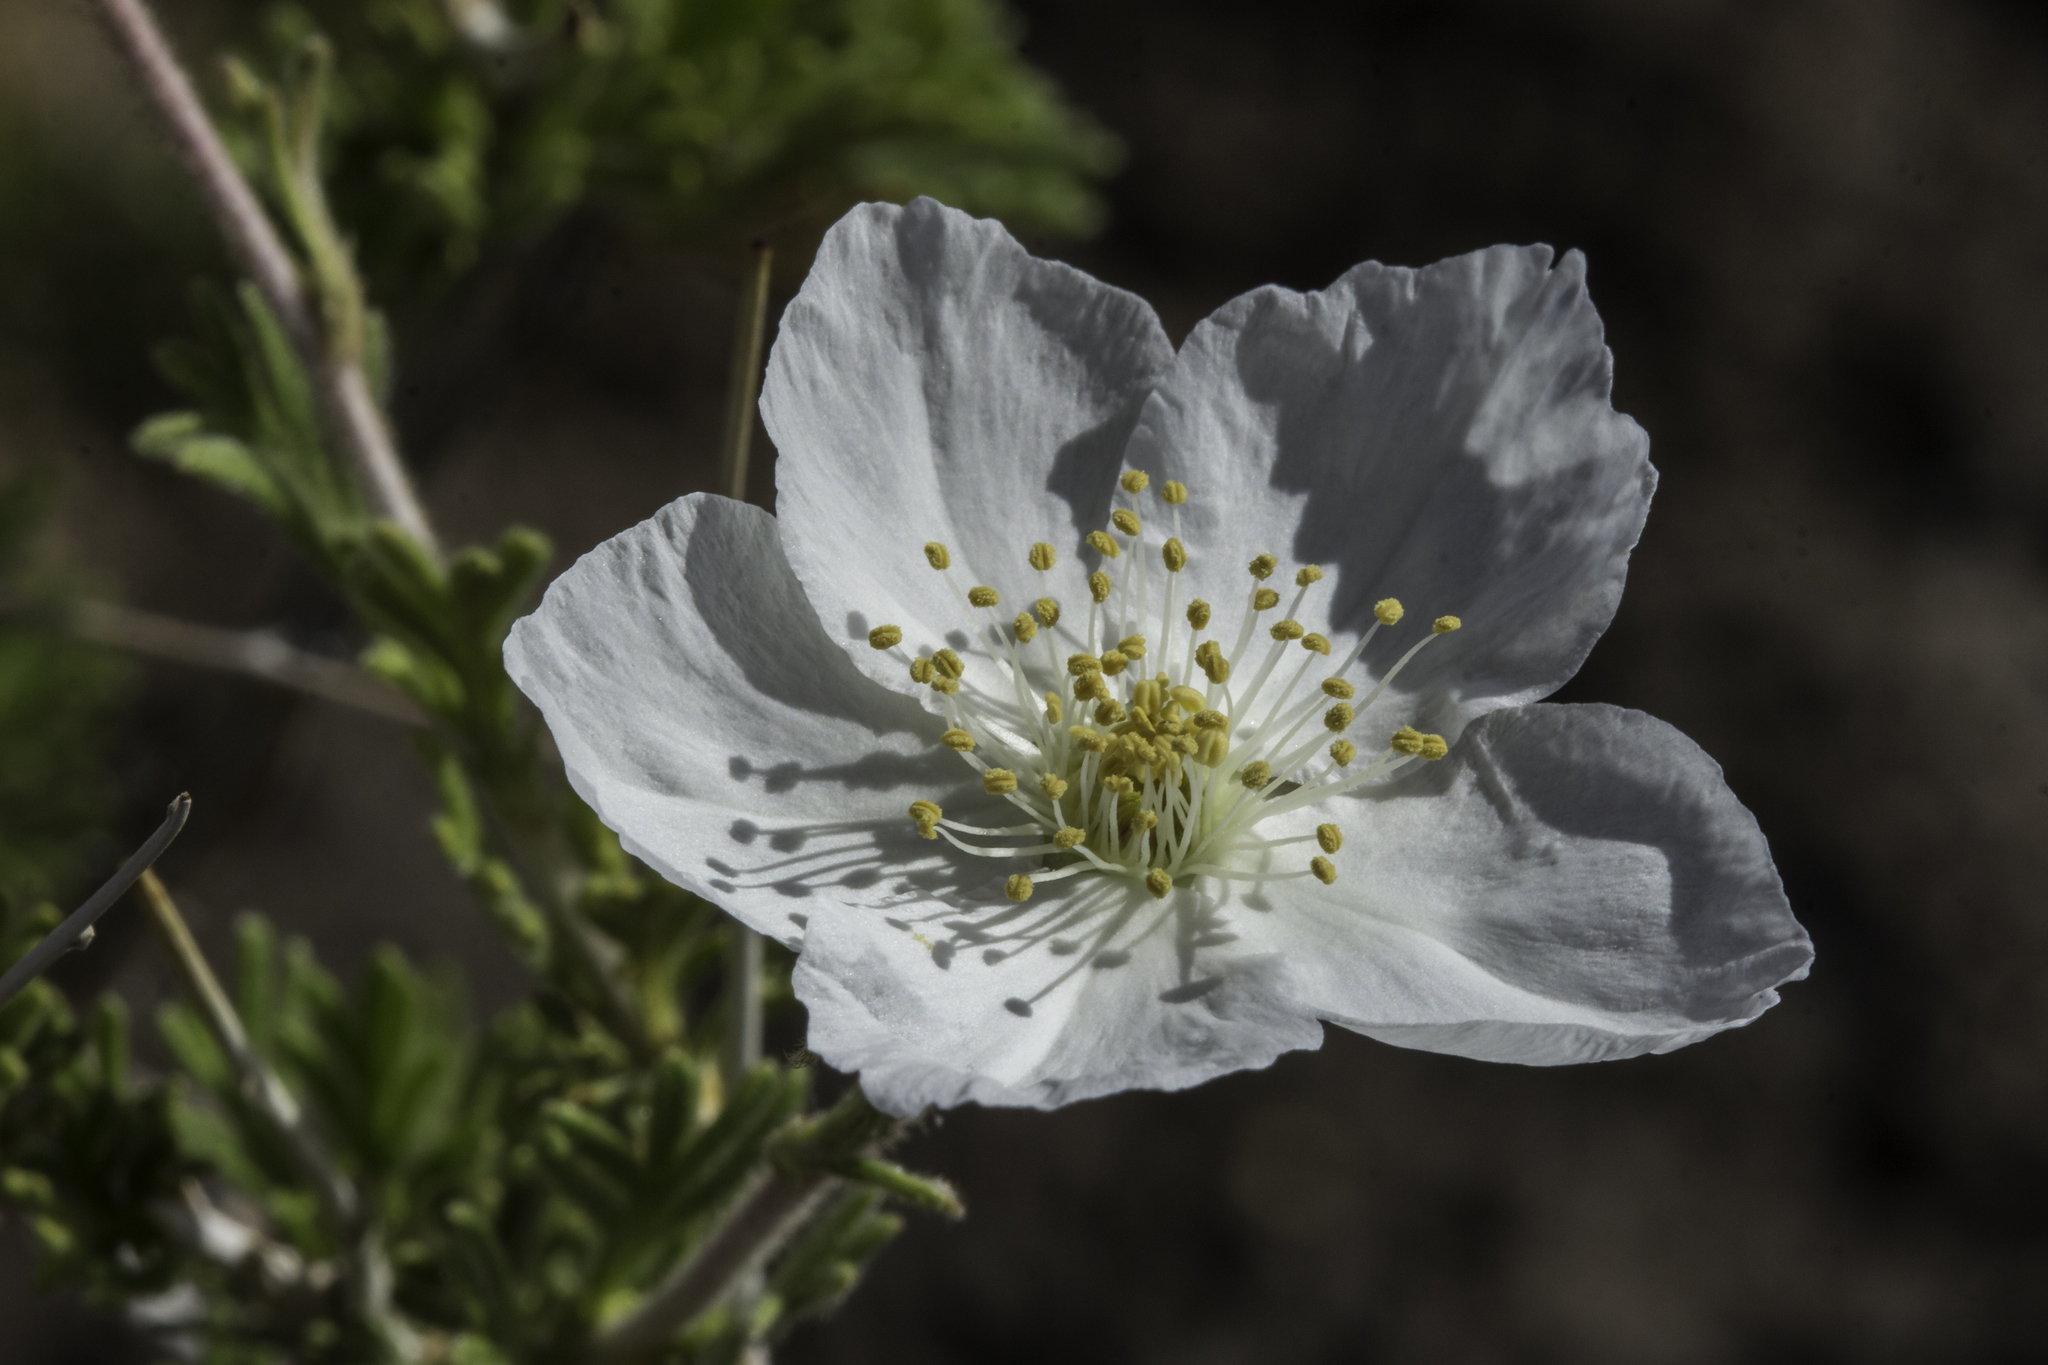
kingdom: Plantae
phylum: Tracheophyta
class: Magnoliopsida
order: Rosales
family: Rosaceae
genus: Fallugia
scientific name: Fallugia paradoxa
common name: Apache-plume
